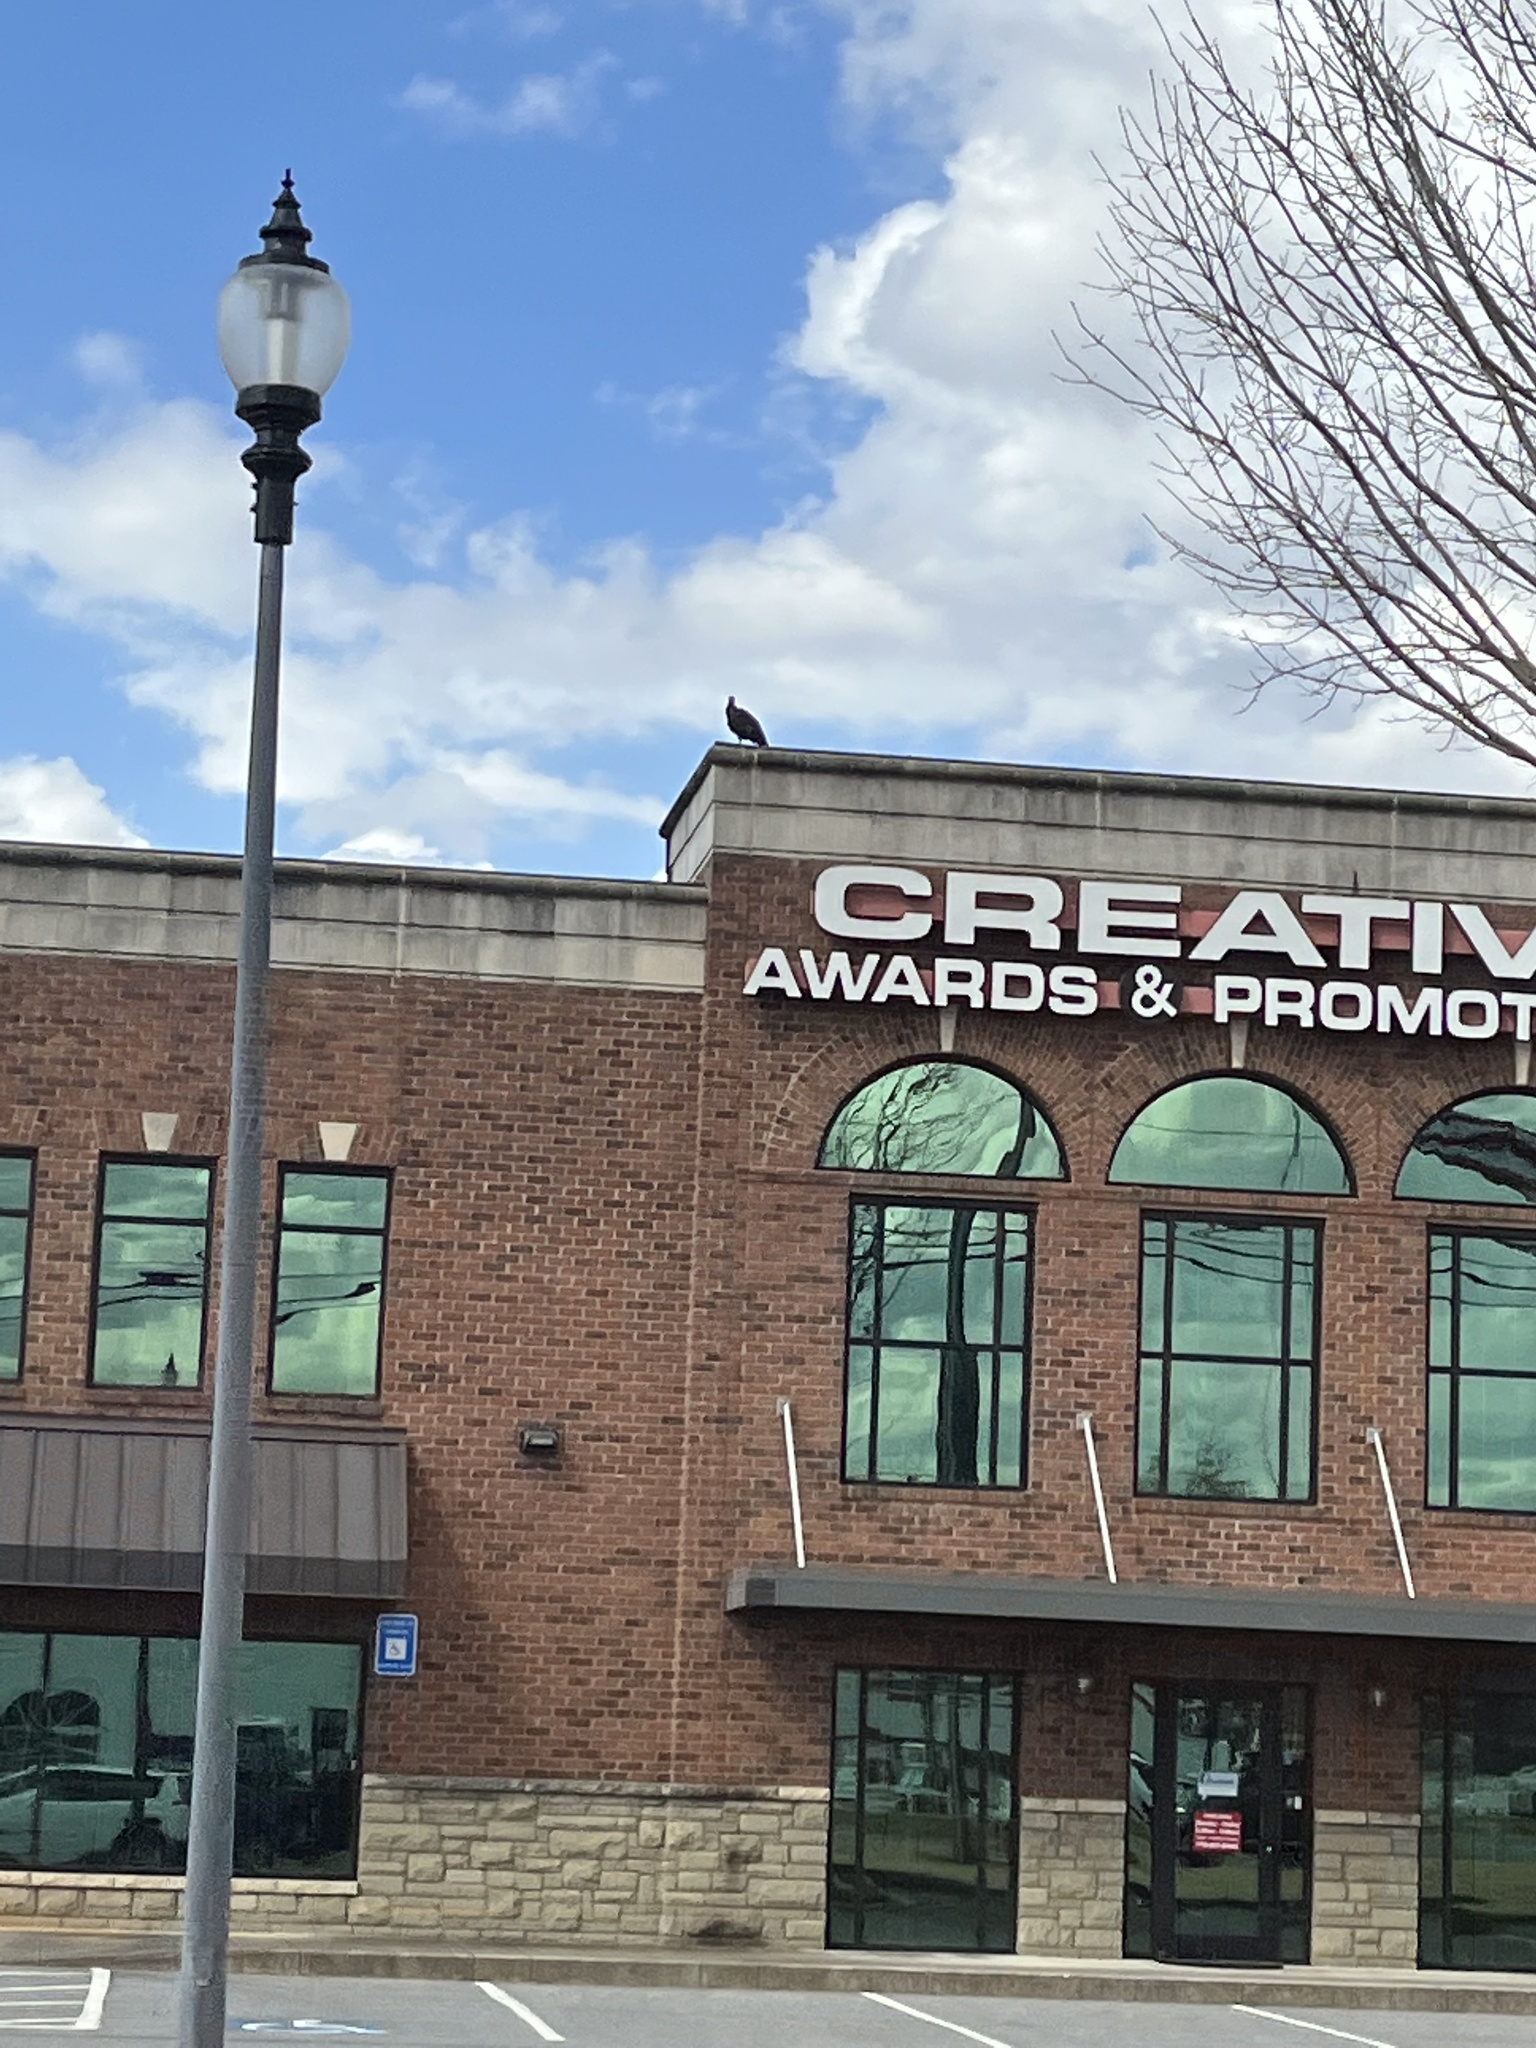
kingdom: Animalia
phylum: Chordata
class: Aves
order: Accipitriformes
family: Cathartidae
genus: Coragyps
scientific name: Coragyps atratus
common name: Black vulture
